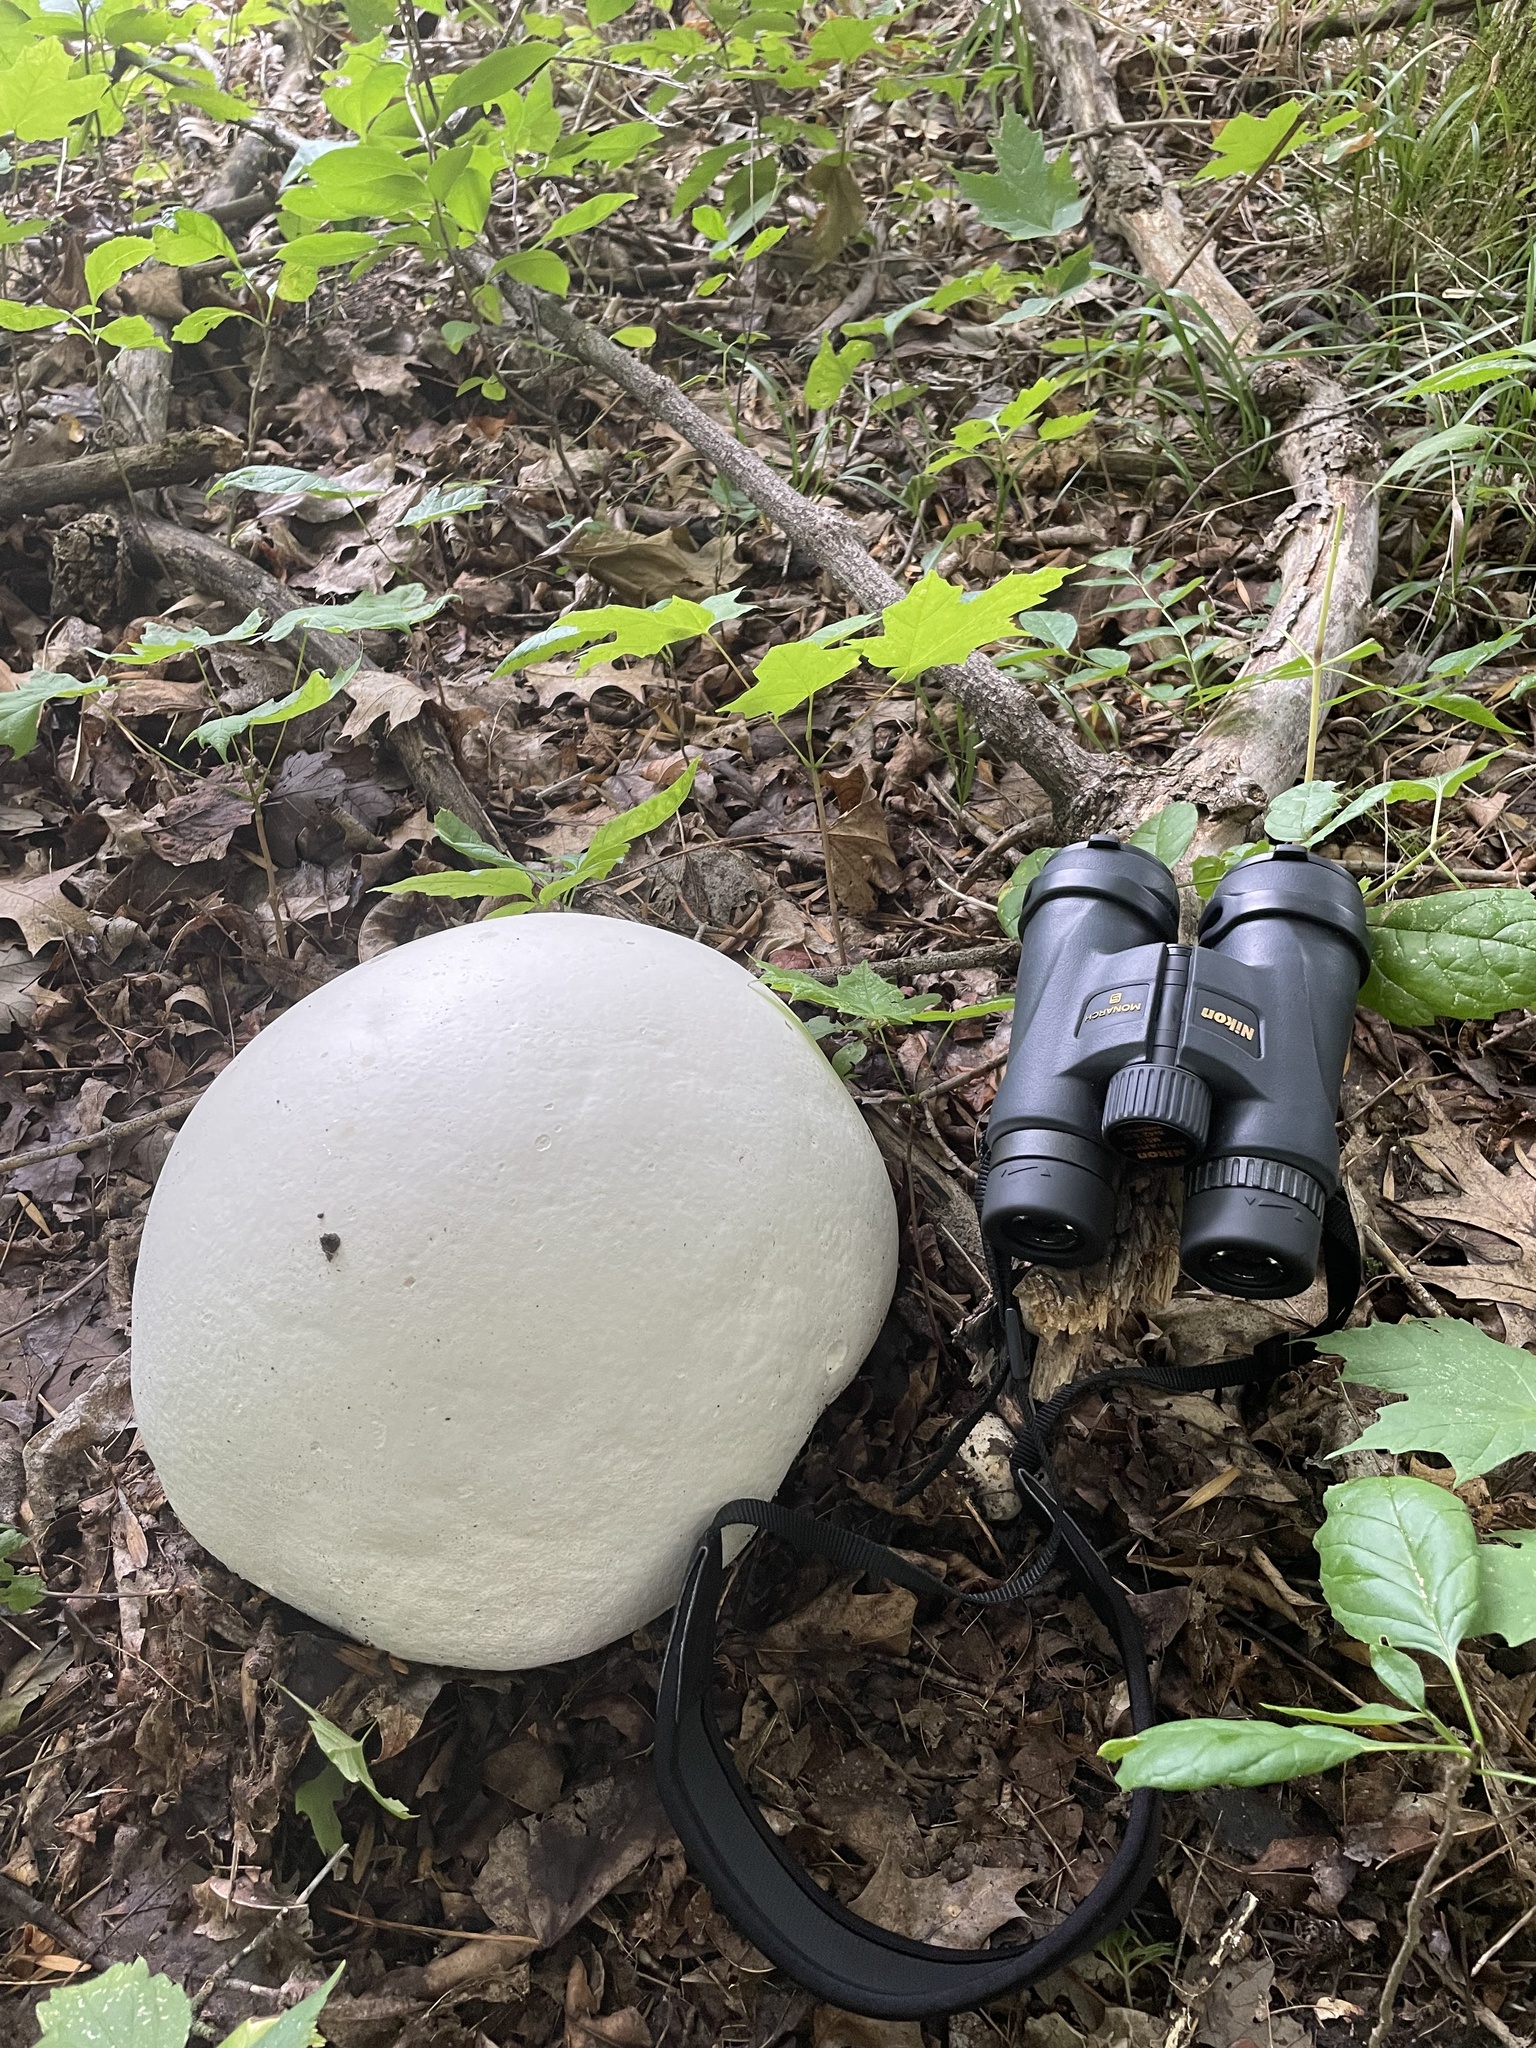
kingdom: Fungi
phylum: Basidiomycota
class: Agaricomycetes
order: Agaricales
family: Lycoperdaceae
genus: Calvatia
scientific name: Calvatia gigantea
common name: Giant puffball
